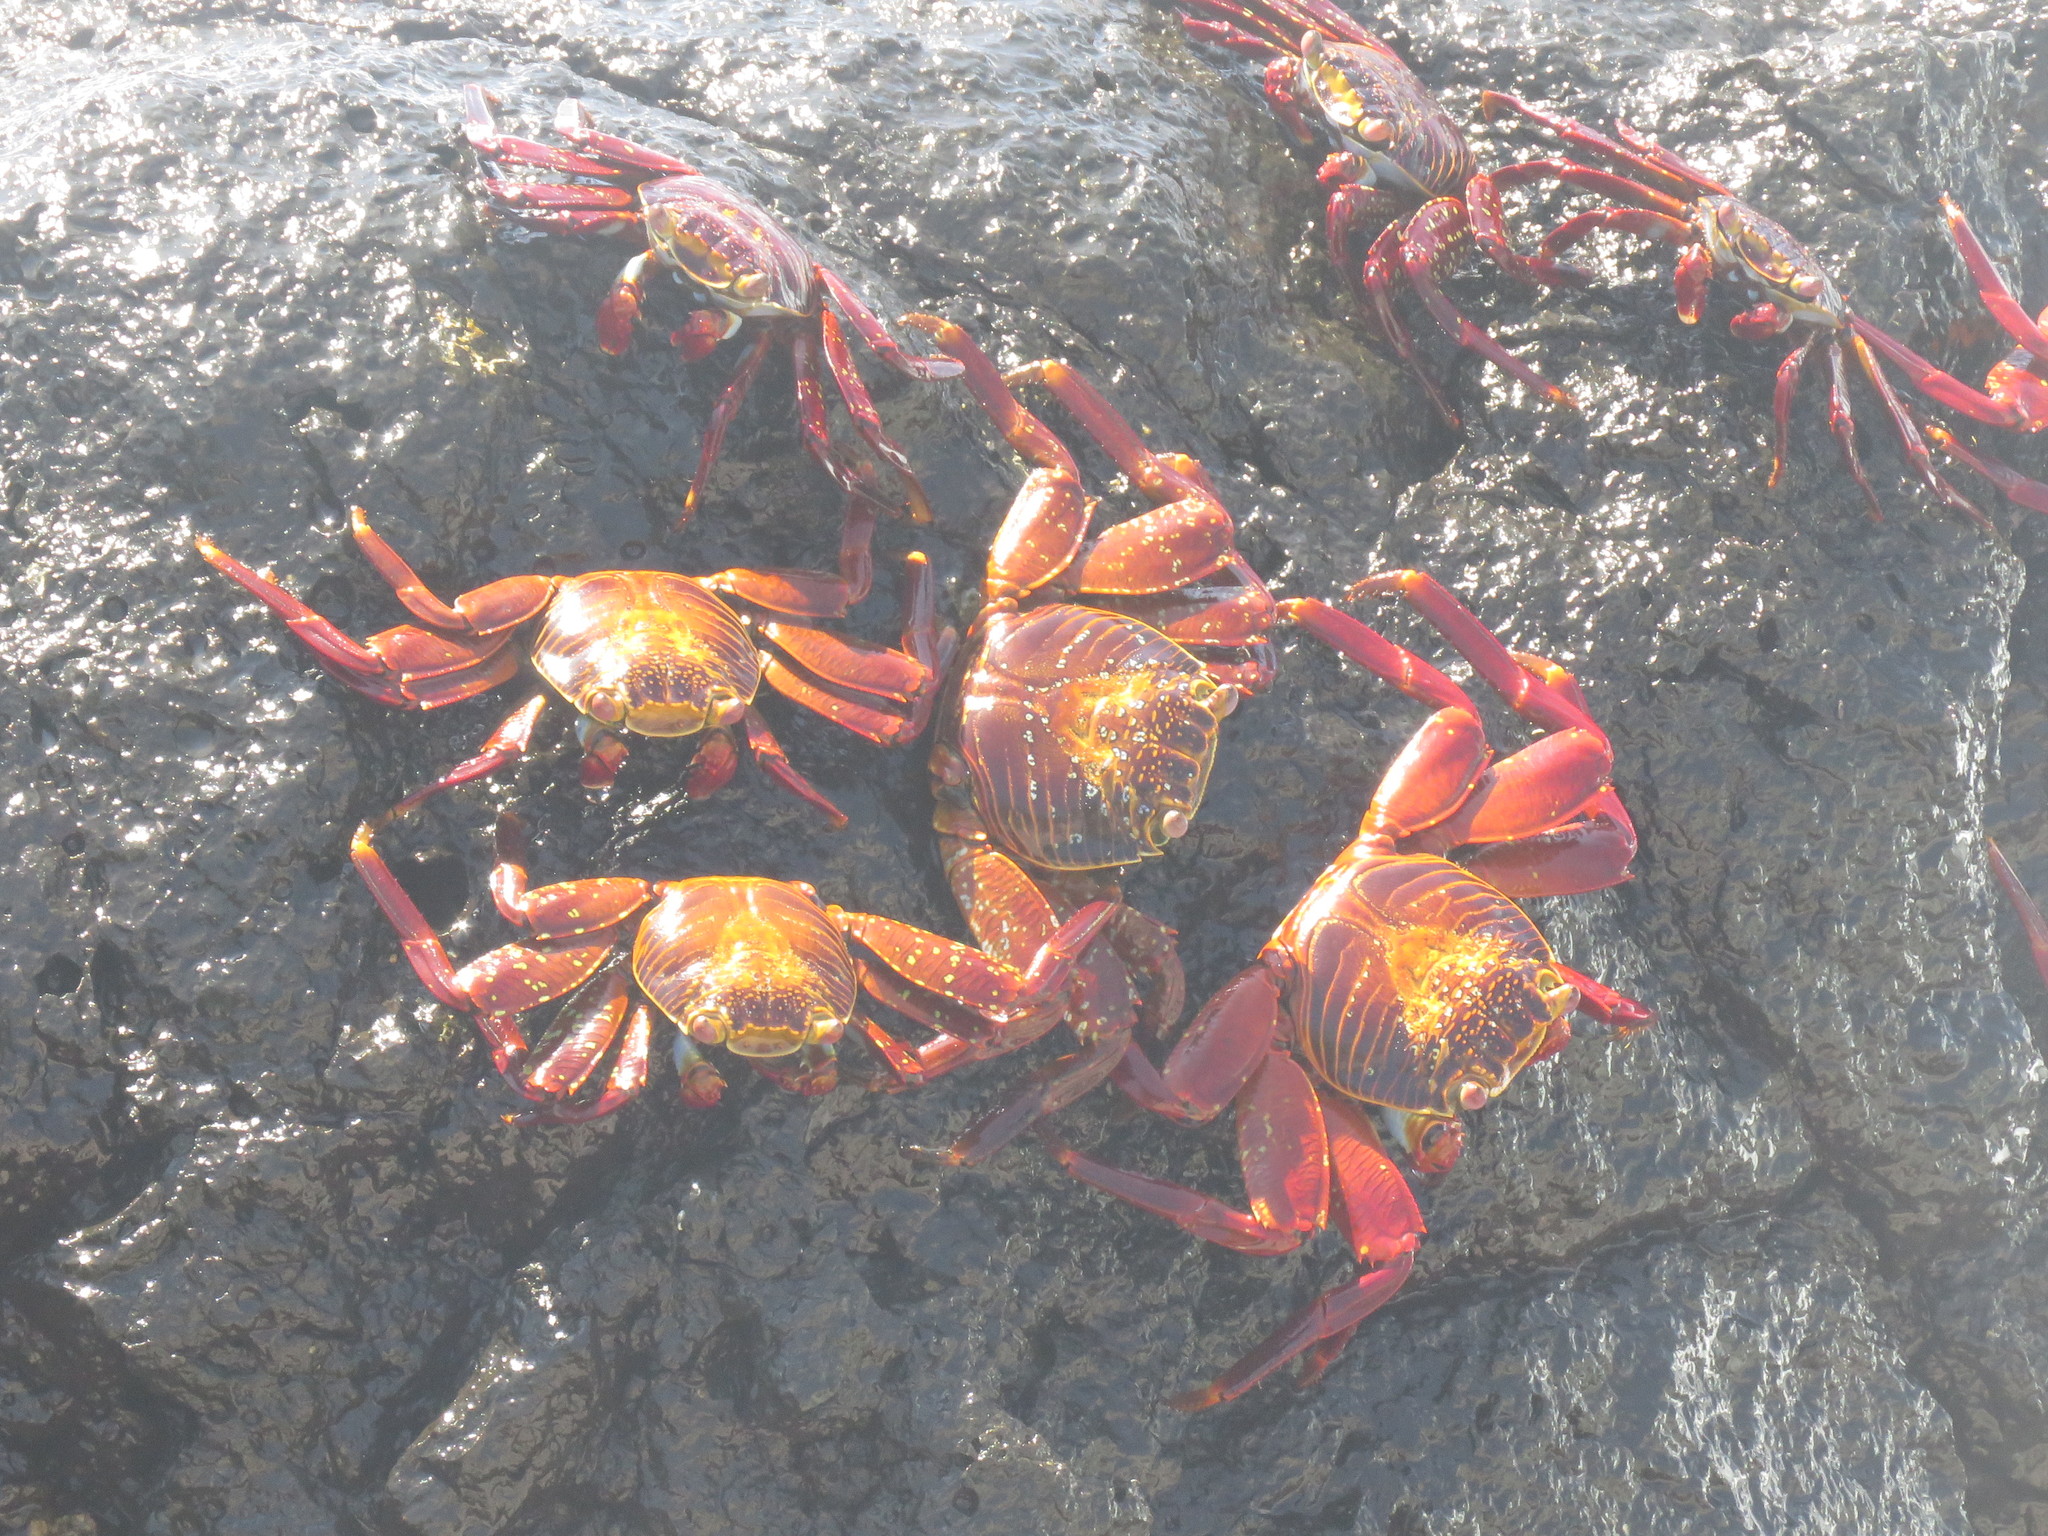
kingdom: Animalia
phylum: Arthropoda
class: Malacostraca
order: Decapoda
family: Grapsidae
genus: Grapsus
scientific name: Grapsus grapsus
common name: Sally lightfoot
